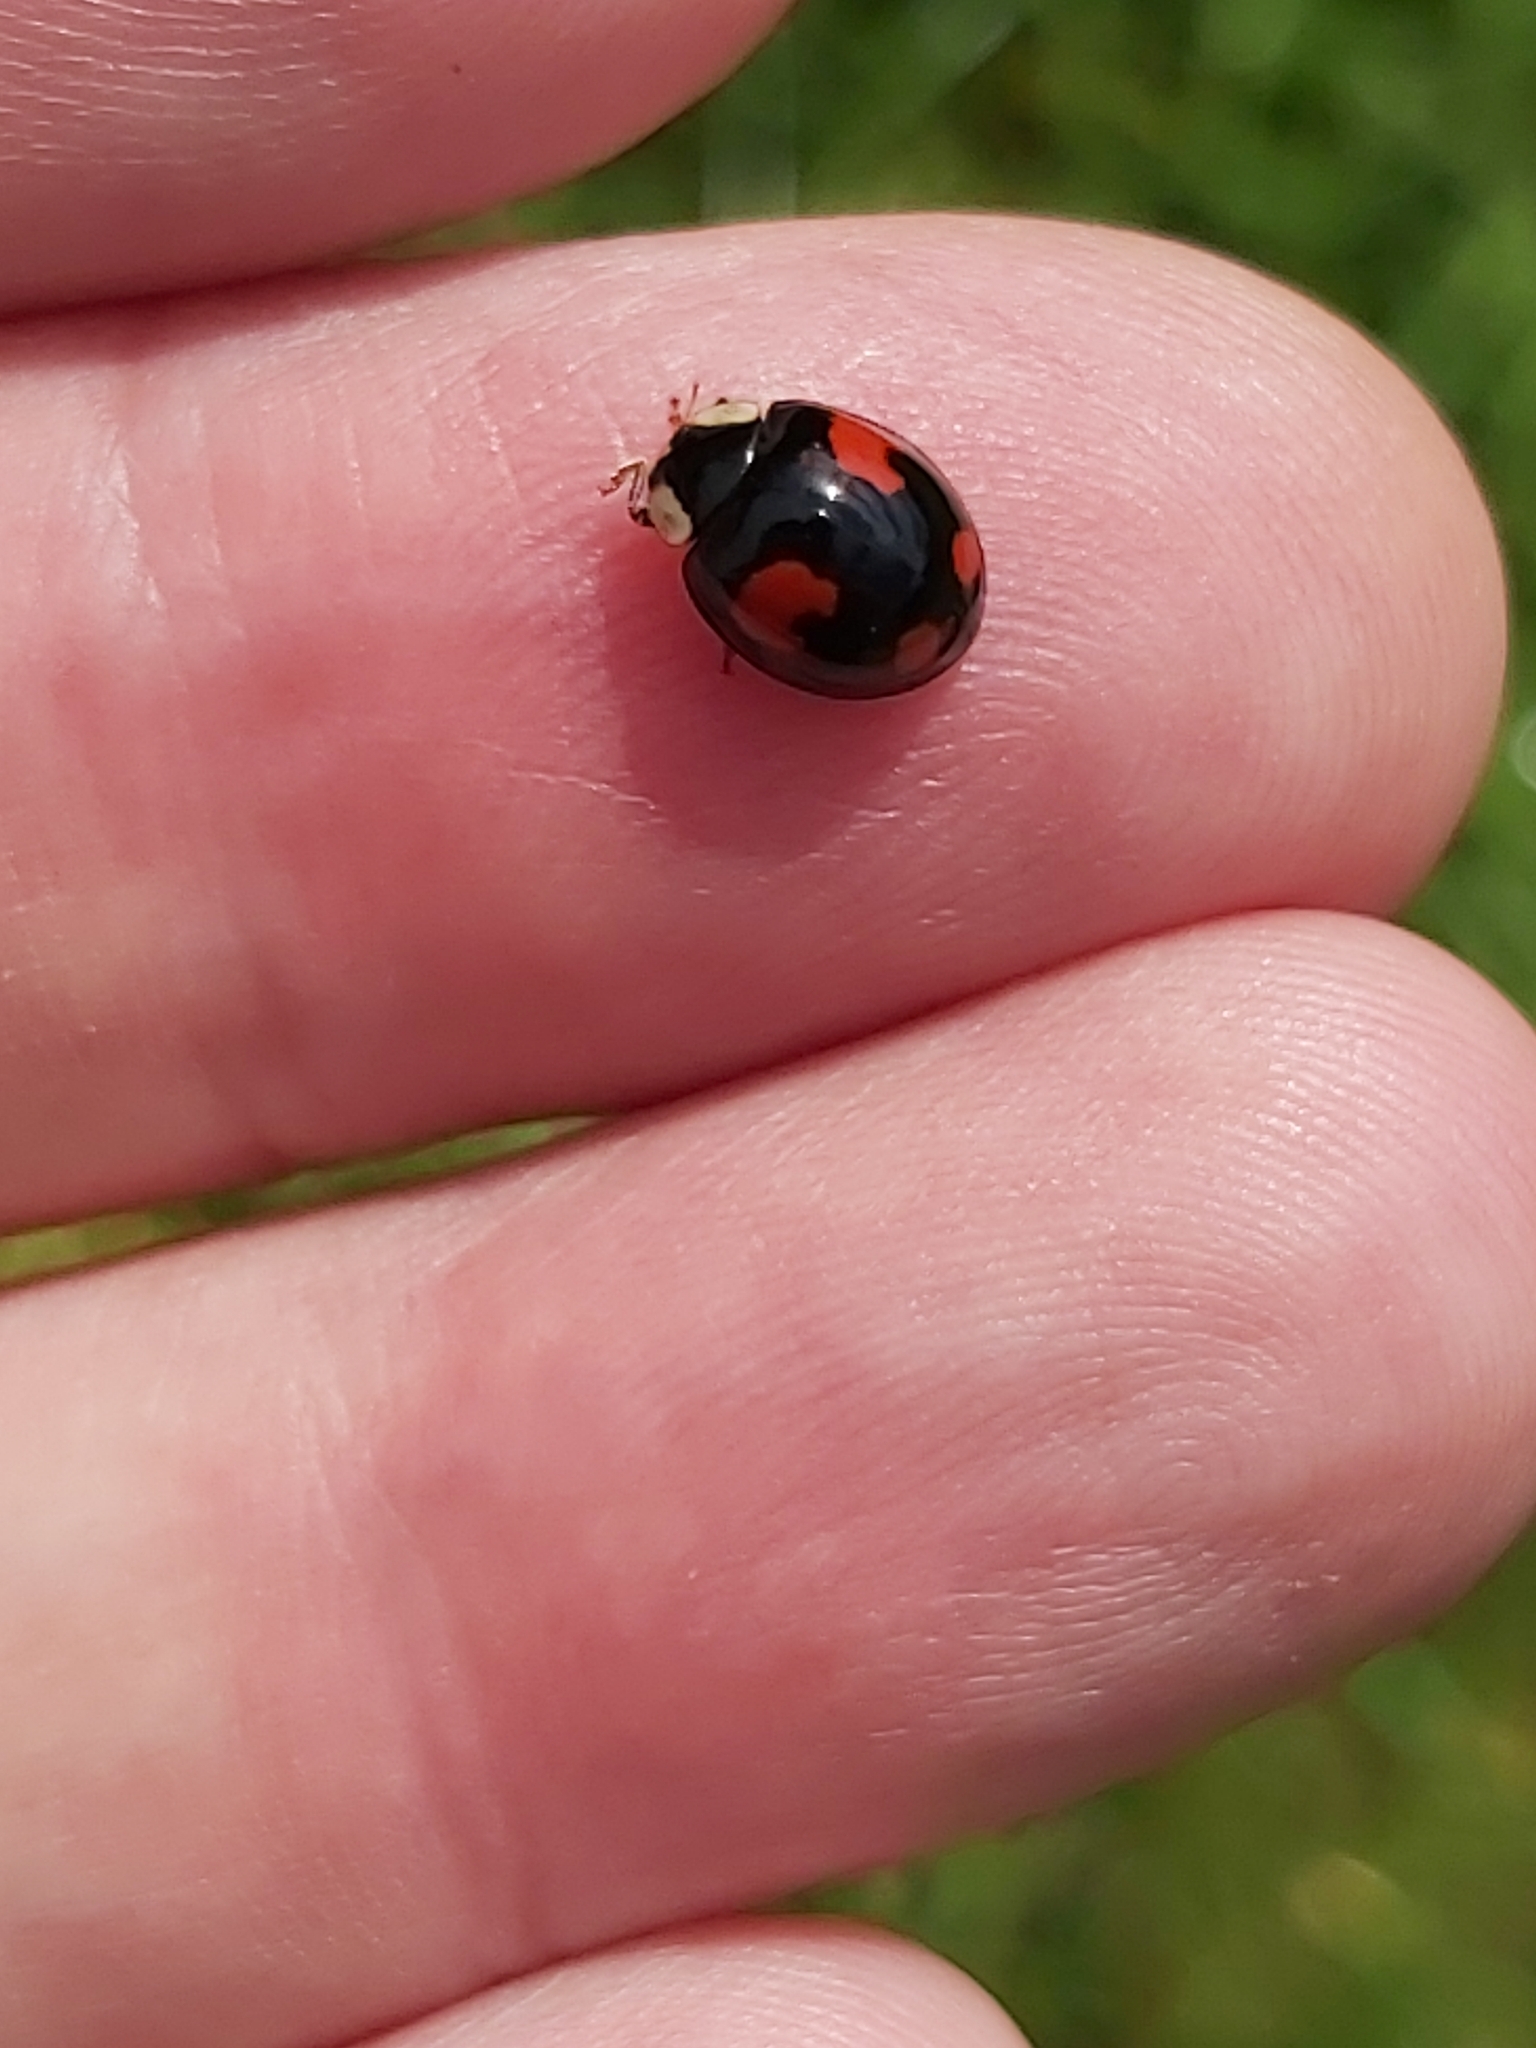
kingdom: Animalia
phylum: Arthropoda
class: Insecta
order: Coleoptera
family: Coccinellidae
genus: Harmonia
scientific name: Harmonia axyridis
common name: Harlequin ladybird
